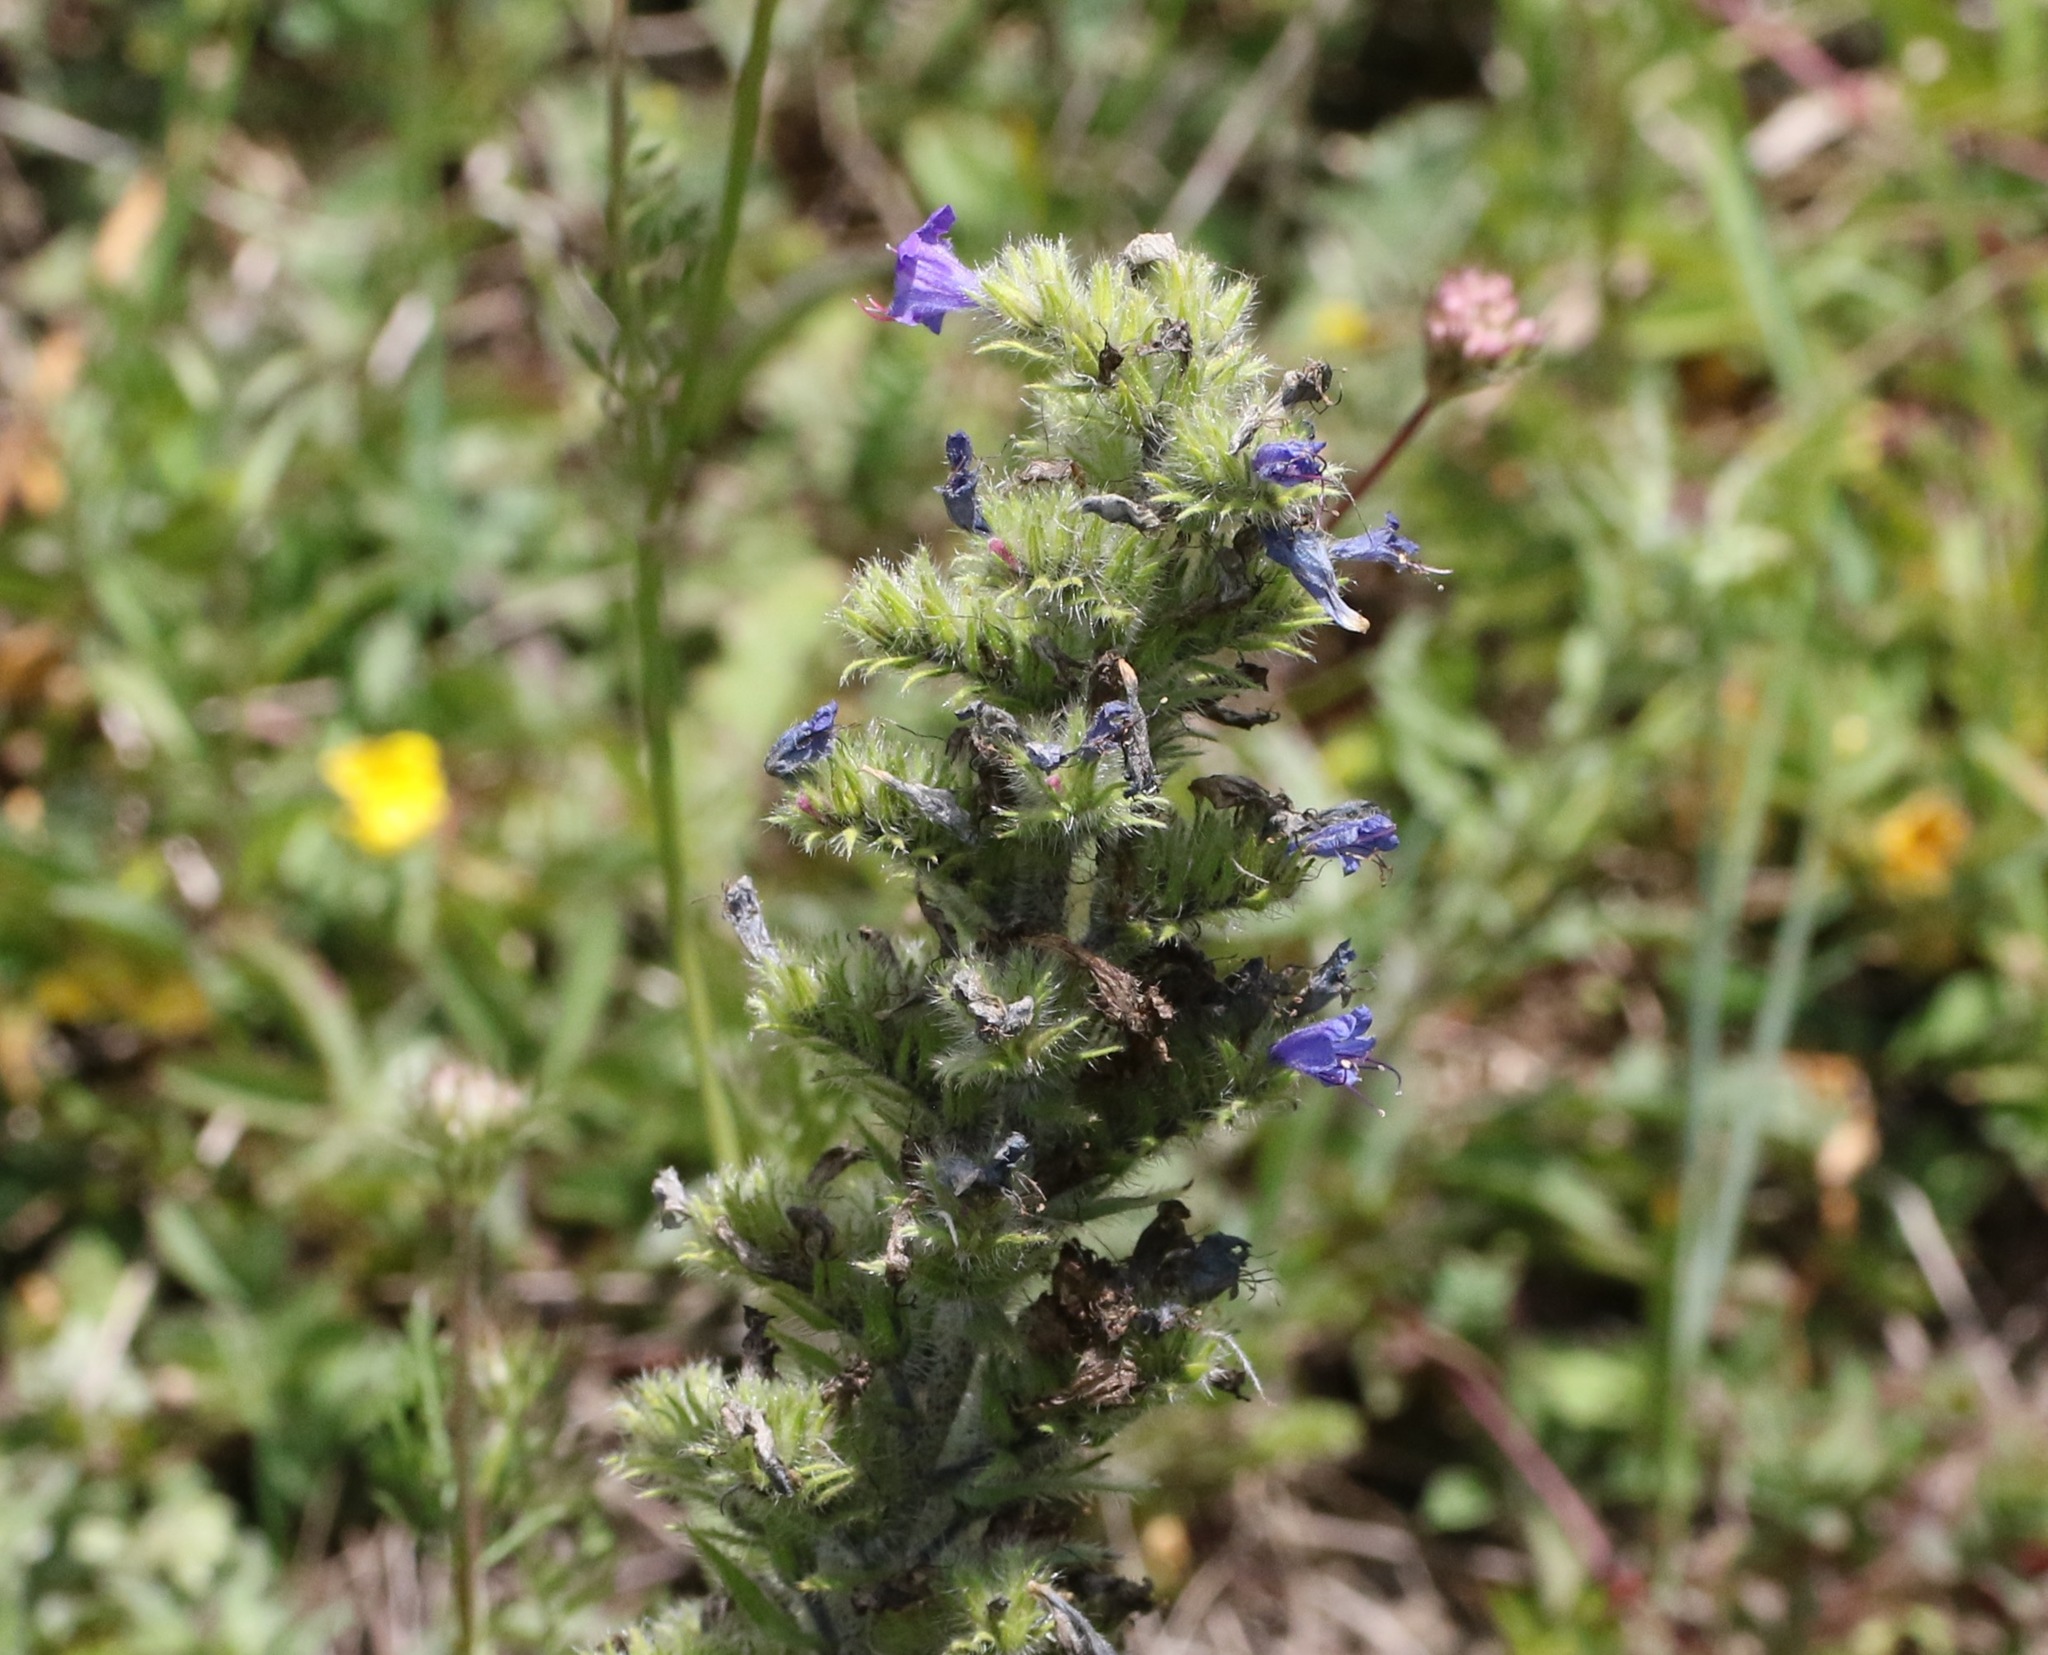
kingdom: Plantae
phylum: Tracheophyta
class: Magnoliopsida
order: Boraginales
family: Boraginaceae
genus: Echium
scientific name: Echium vulgare
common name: Common viper's bugloss
